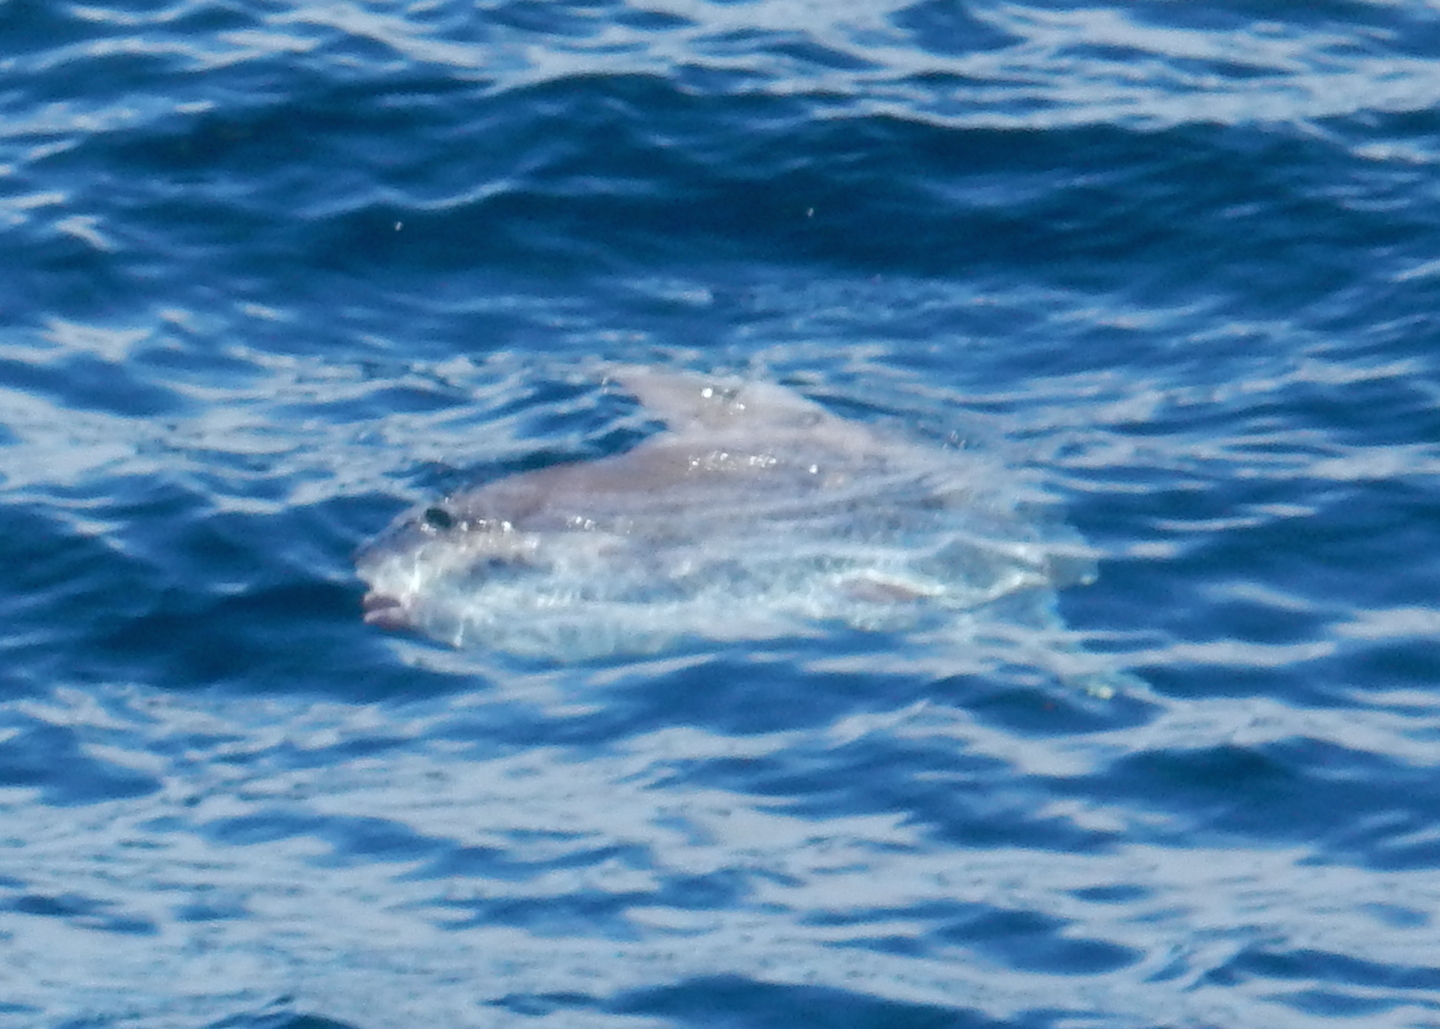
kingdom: Animalia
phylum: Chordata
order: Tetraodontiformes
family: Molidae
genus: Mola
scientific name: Mola mola
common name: Ocean sunfish
